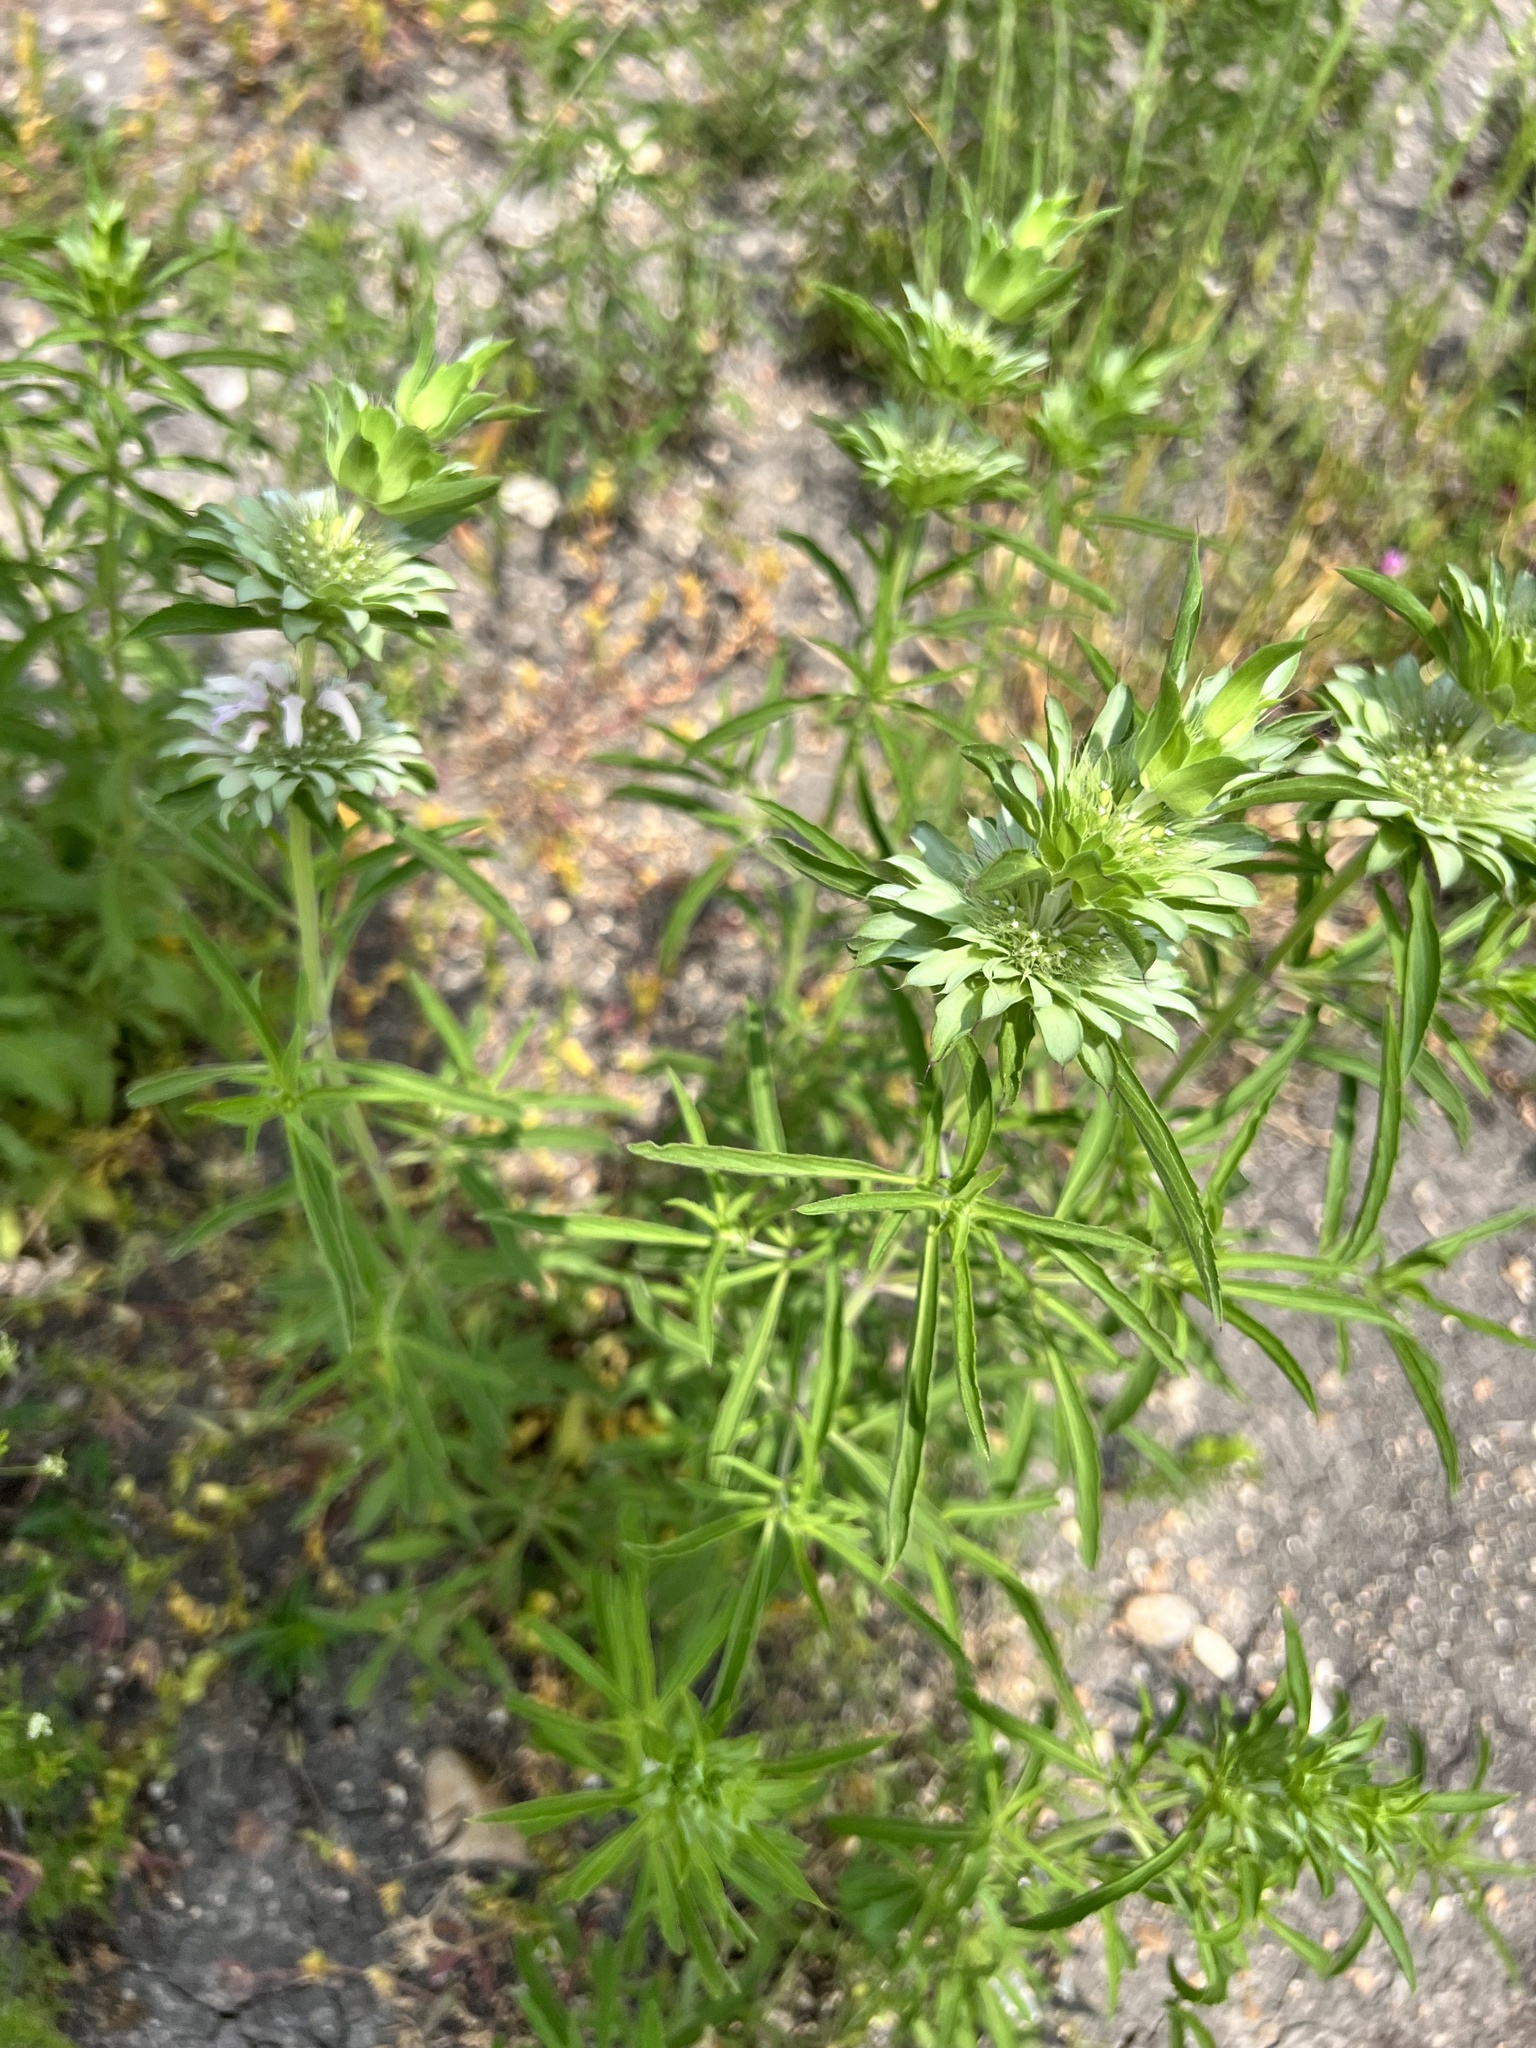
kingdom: Plantae
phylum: Tracheophyta
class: Magnoliopsida
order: Lamiales
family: Lamiaceae
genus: Monarda
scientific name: Monarda citriodora
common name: Lemon beebalm
